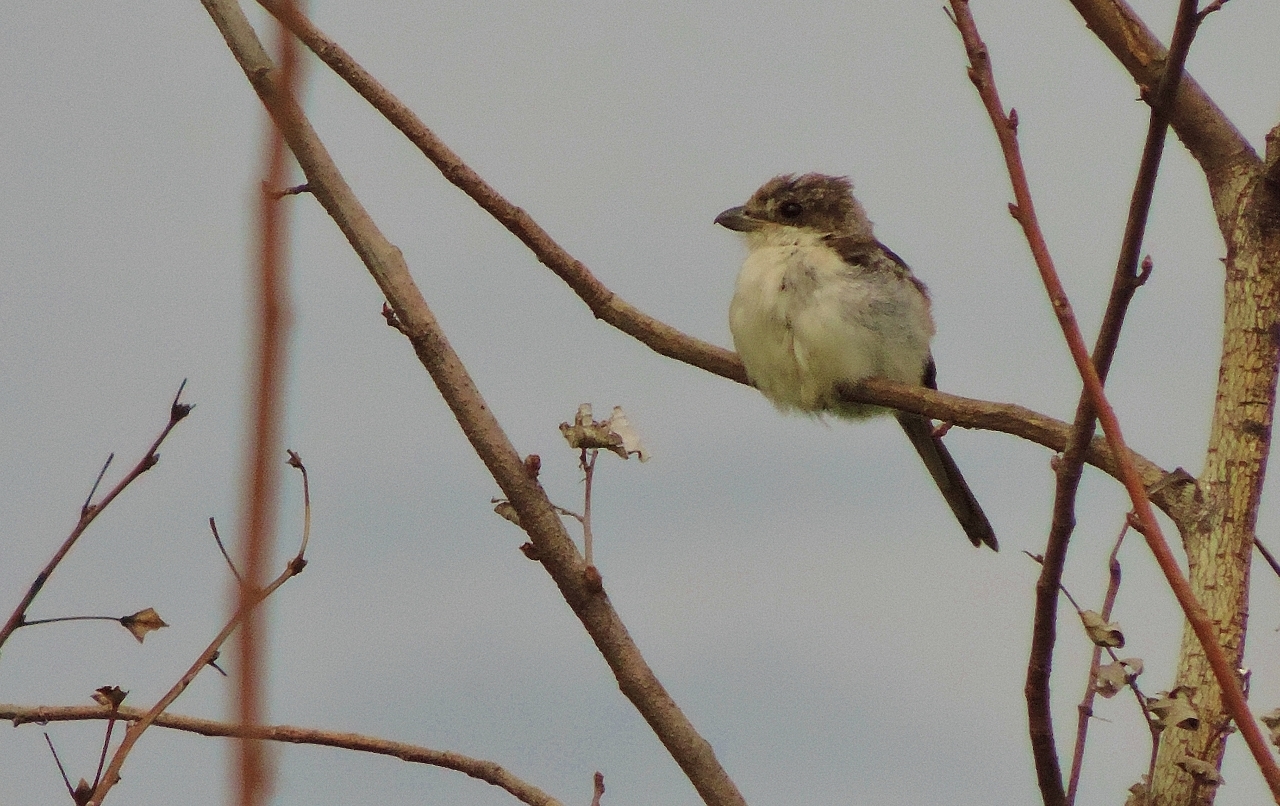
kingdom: Animalia
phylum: Chordata
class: Aves
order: Passeriformes
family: Laniidae
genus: Lanius
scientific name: Lanius collaris
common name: Southern fiscal
